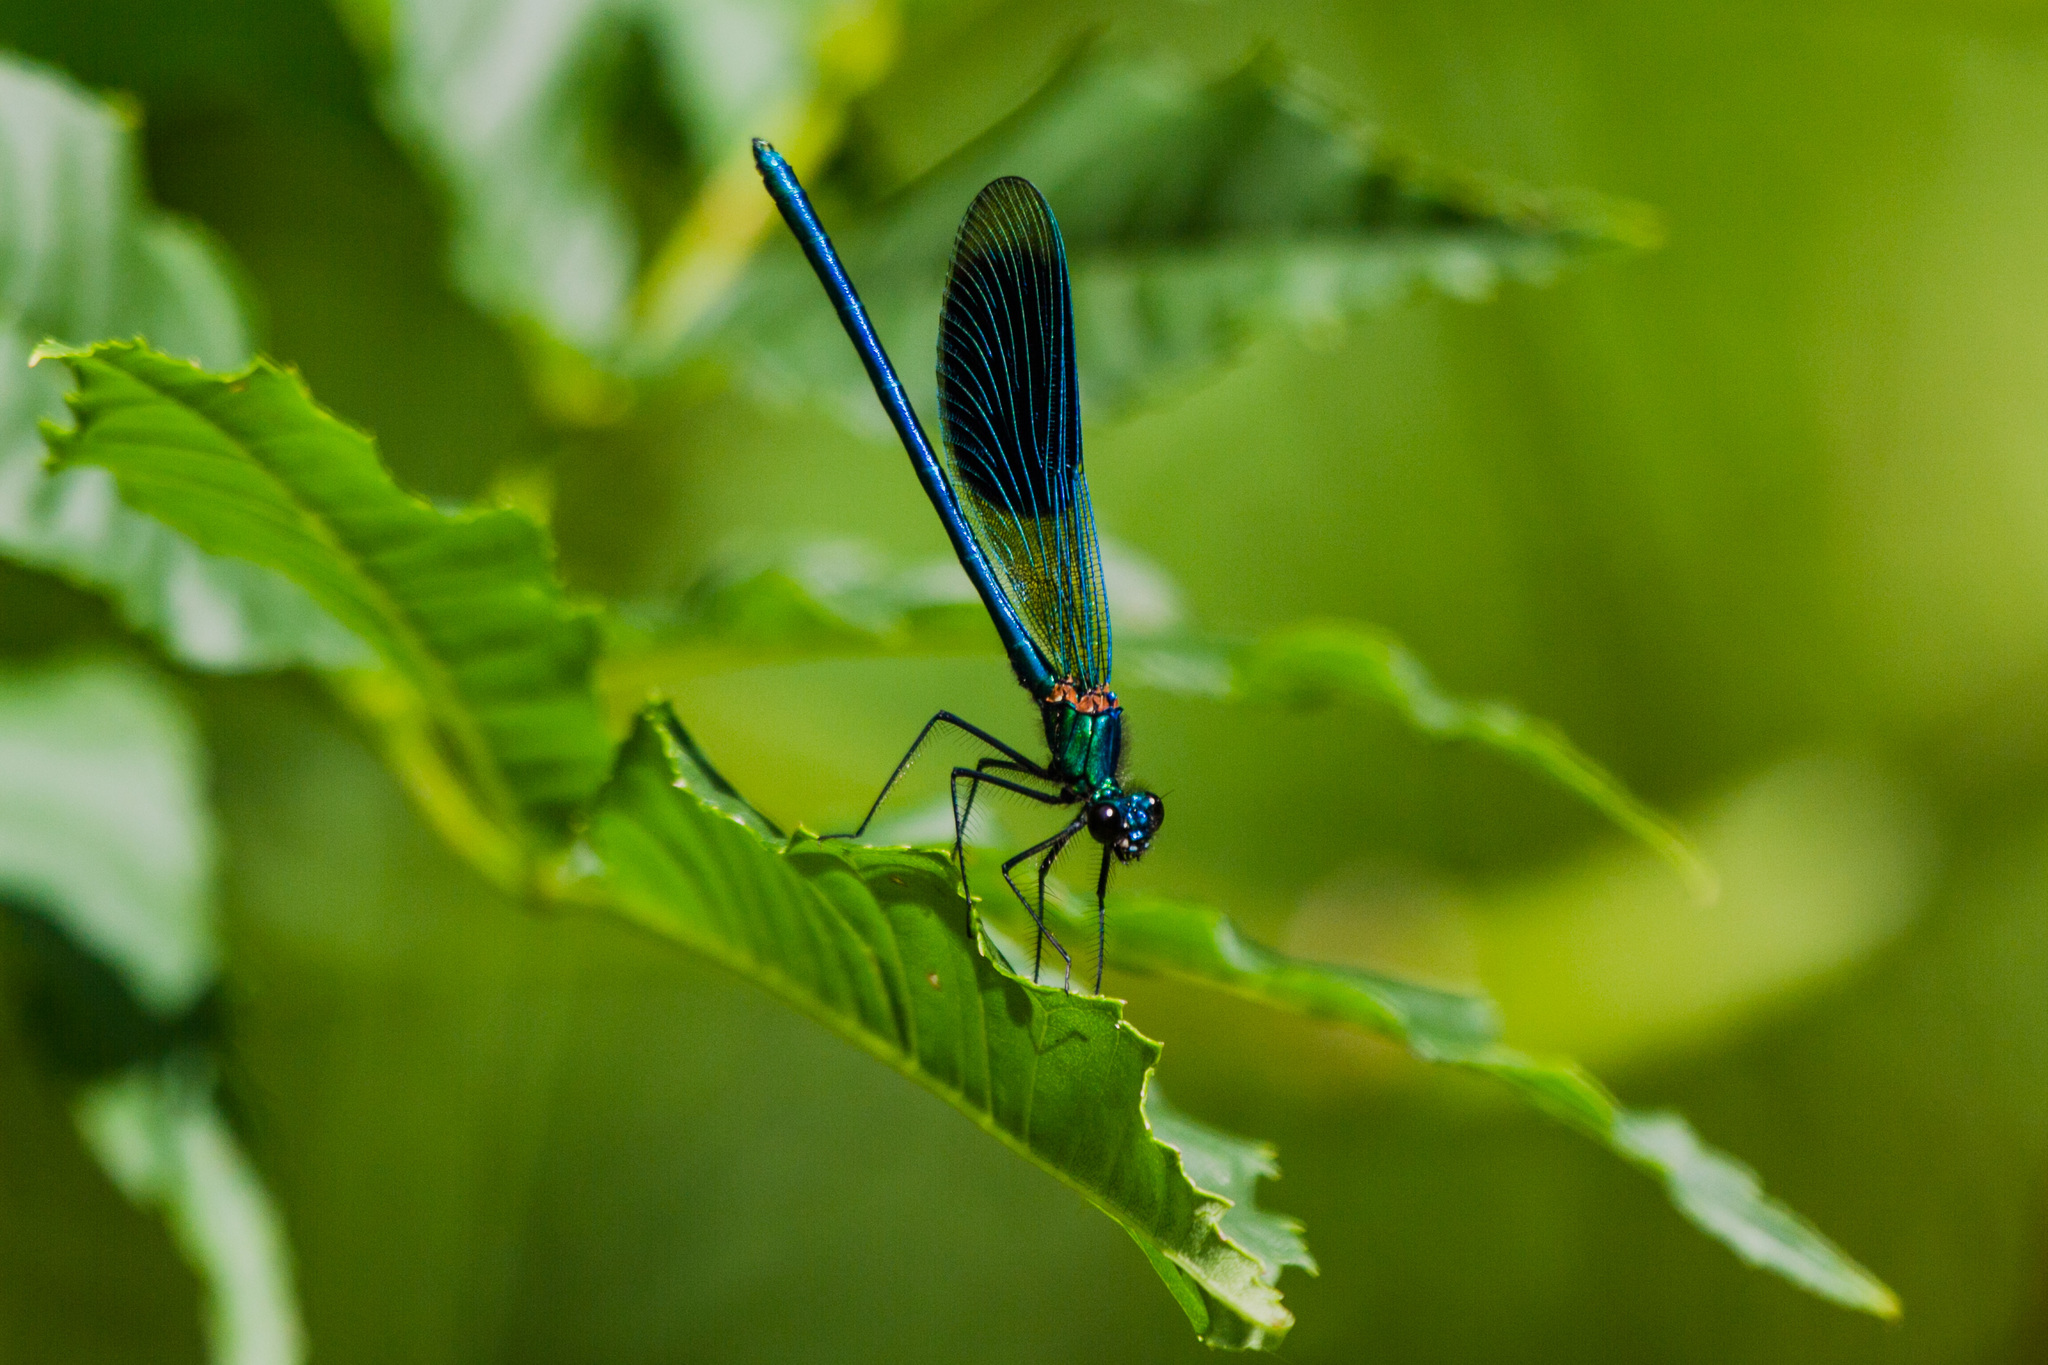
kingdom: Animalia
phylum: Arthropoda
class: Insecta
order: Odonata
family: Calopterygidae
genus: Calopteryx
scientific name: Calopteryx splendens
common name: Banded demoiselle
